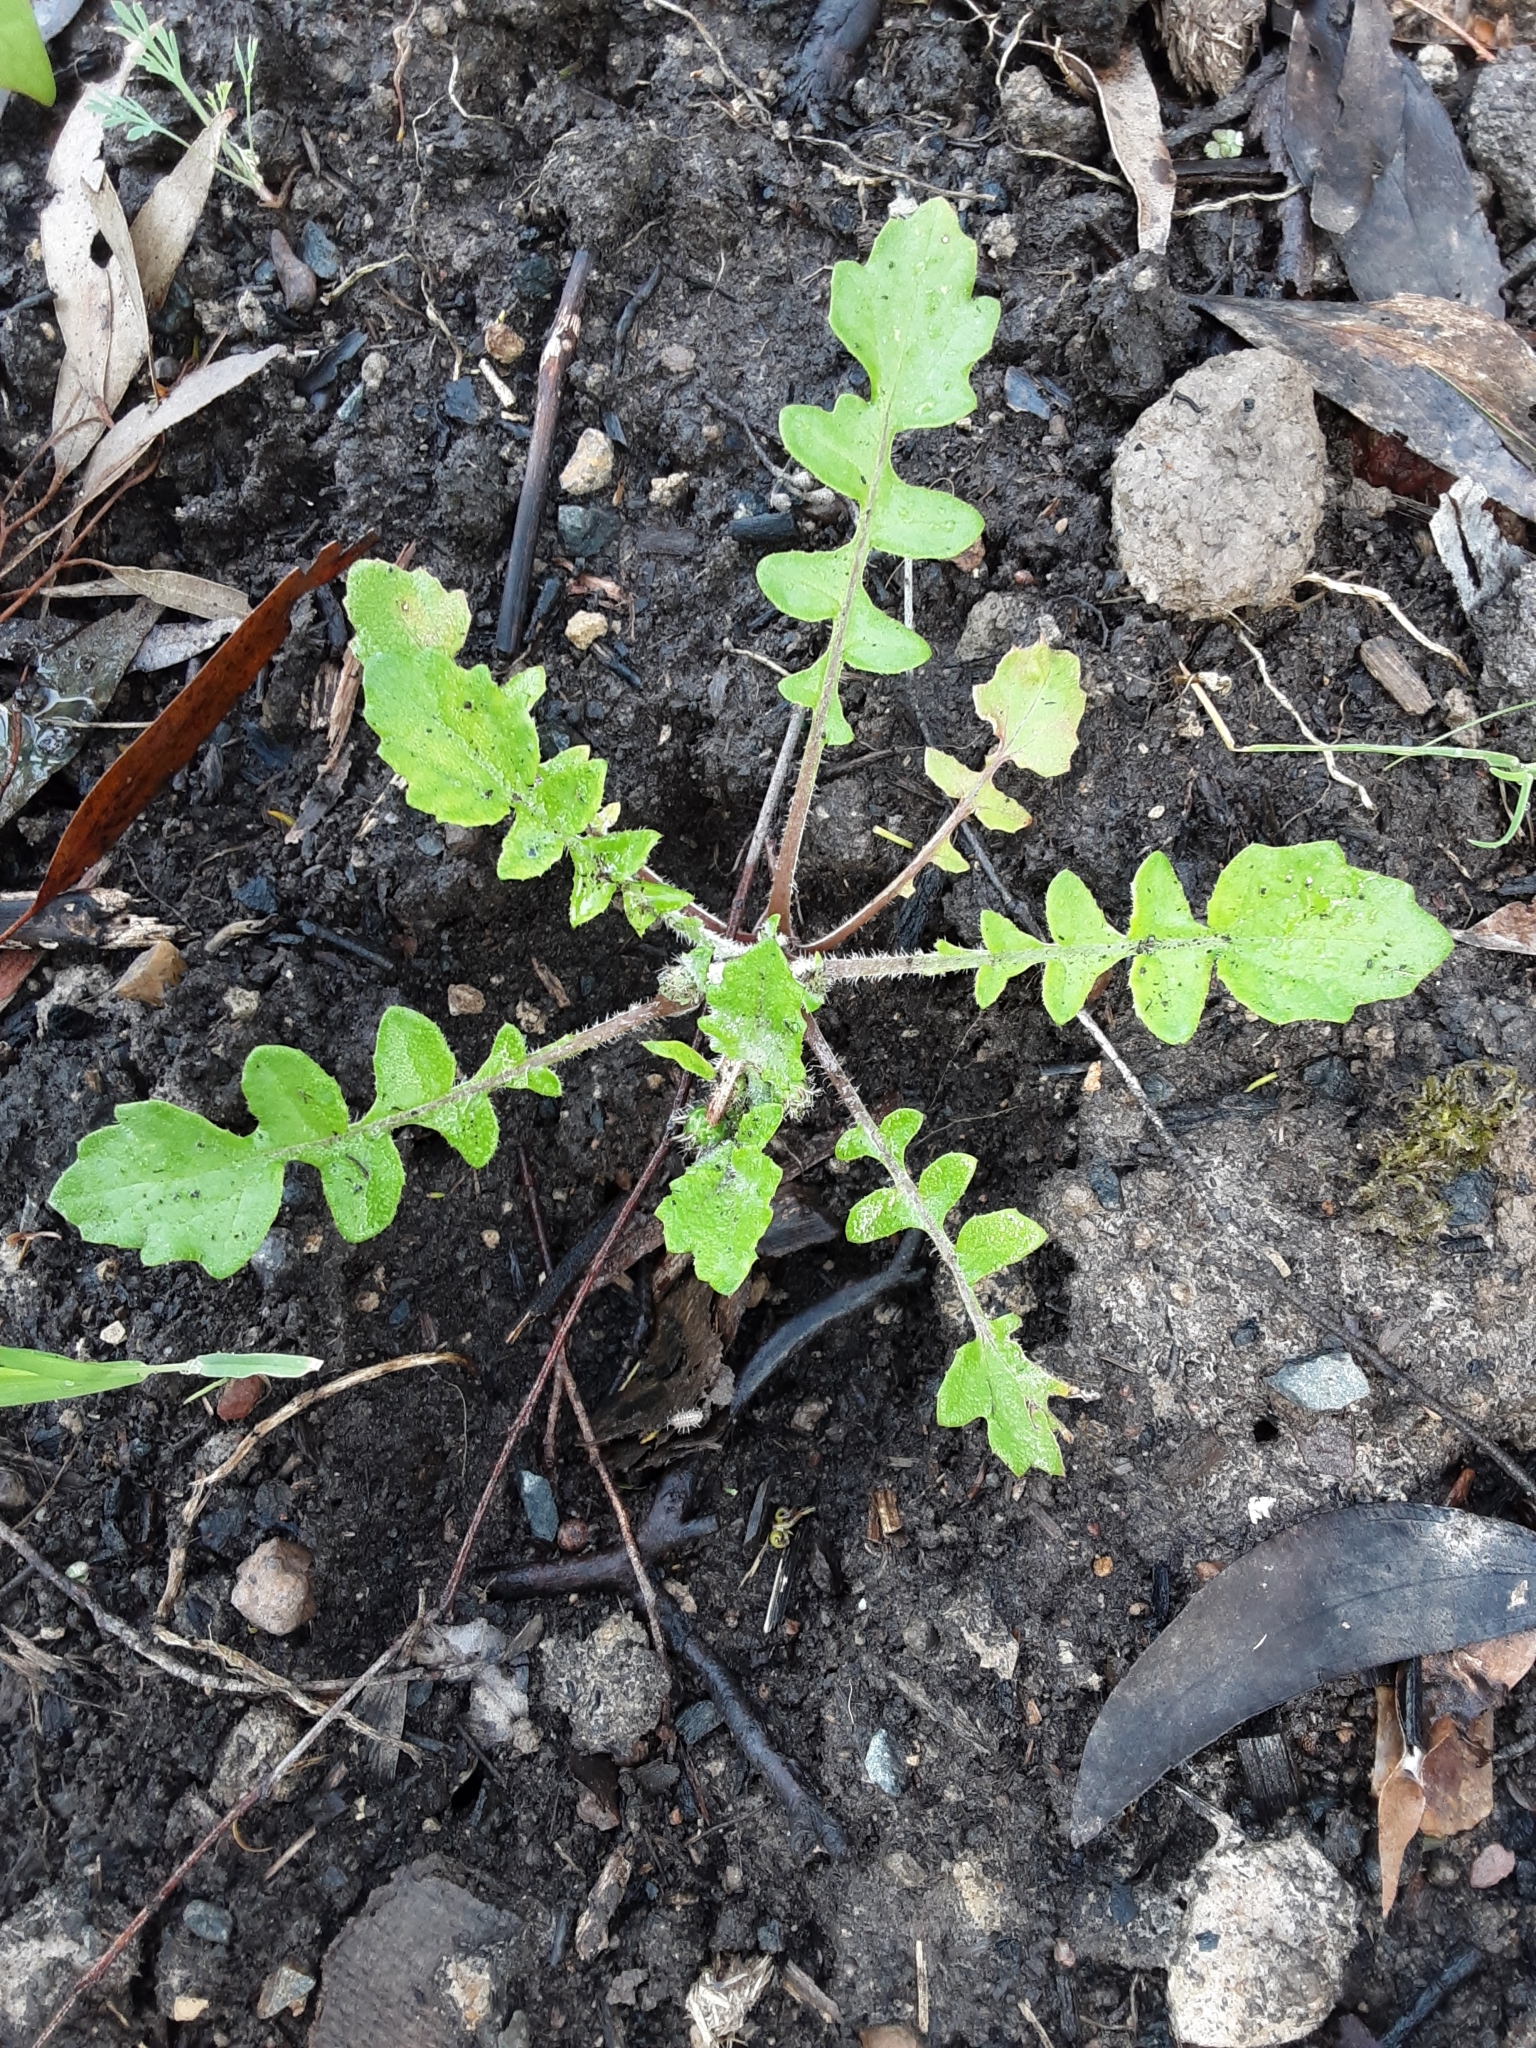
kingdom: Plantae
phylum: Tracheophyta
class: Magnoliopsida
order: Asterales
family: Asteraceae
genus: Arctotheca
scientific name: Arctotheca calendula
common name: Capeweed
